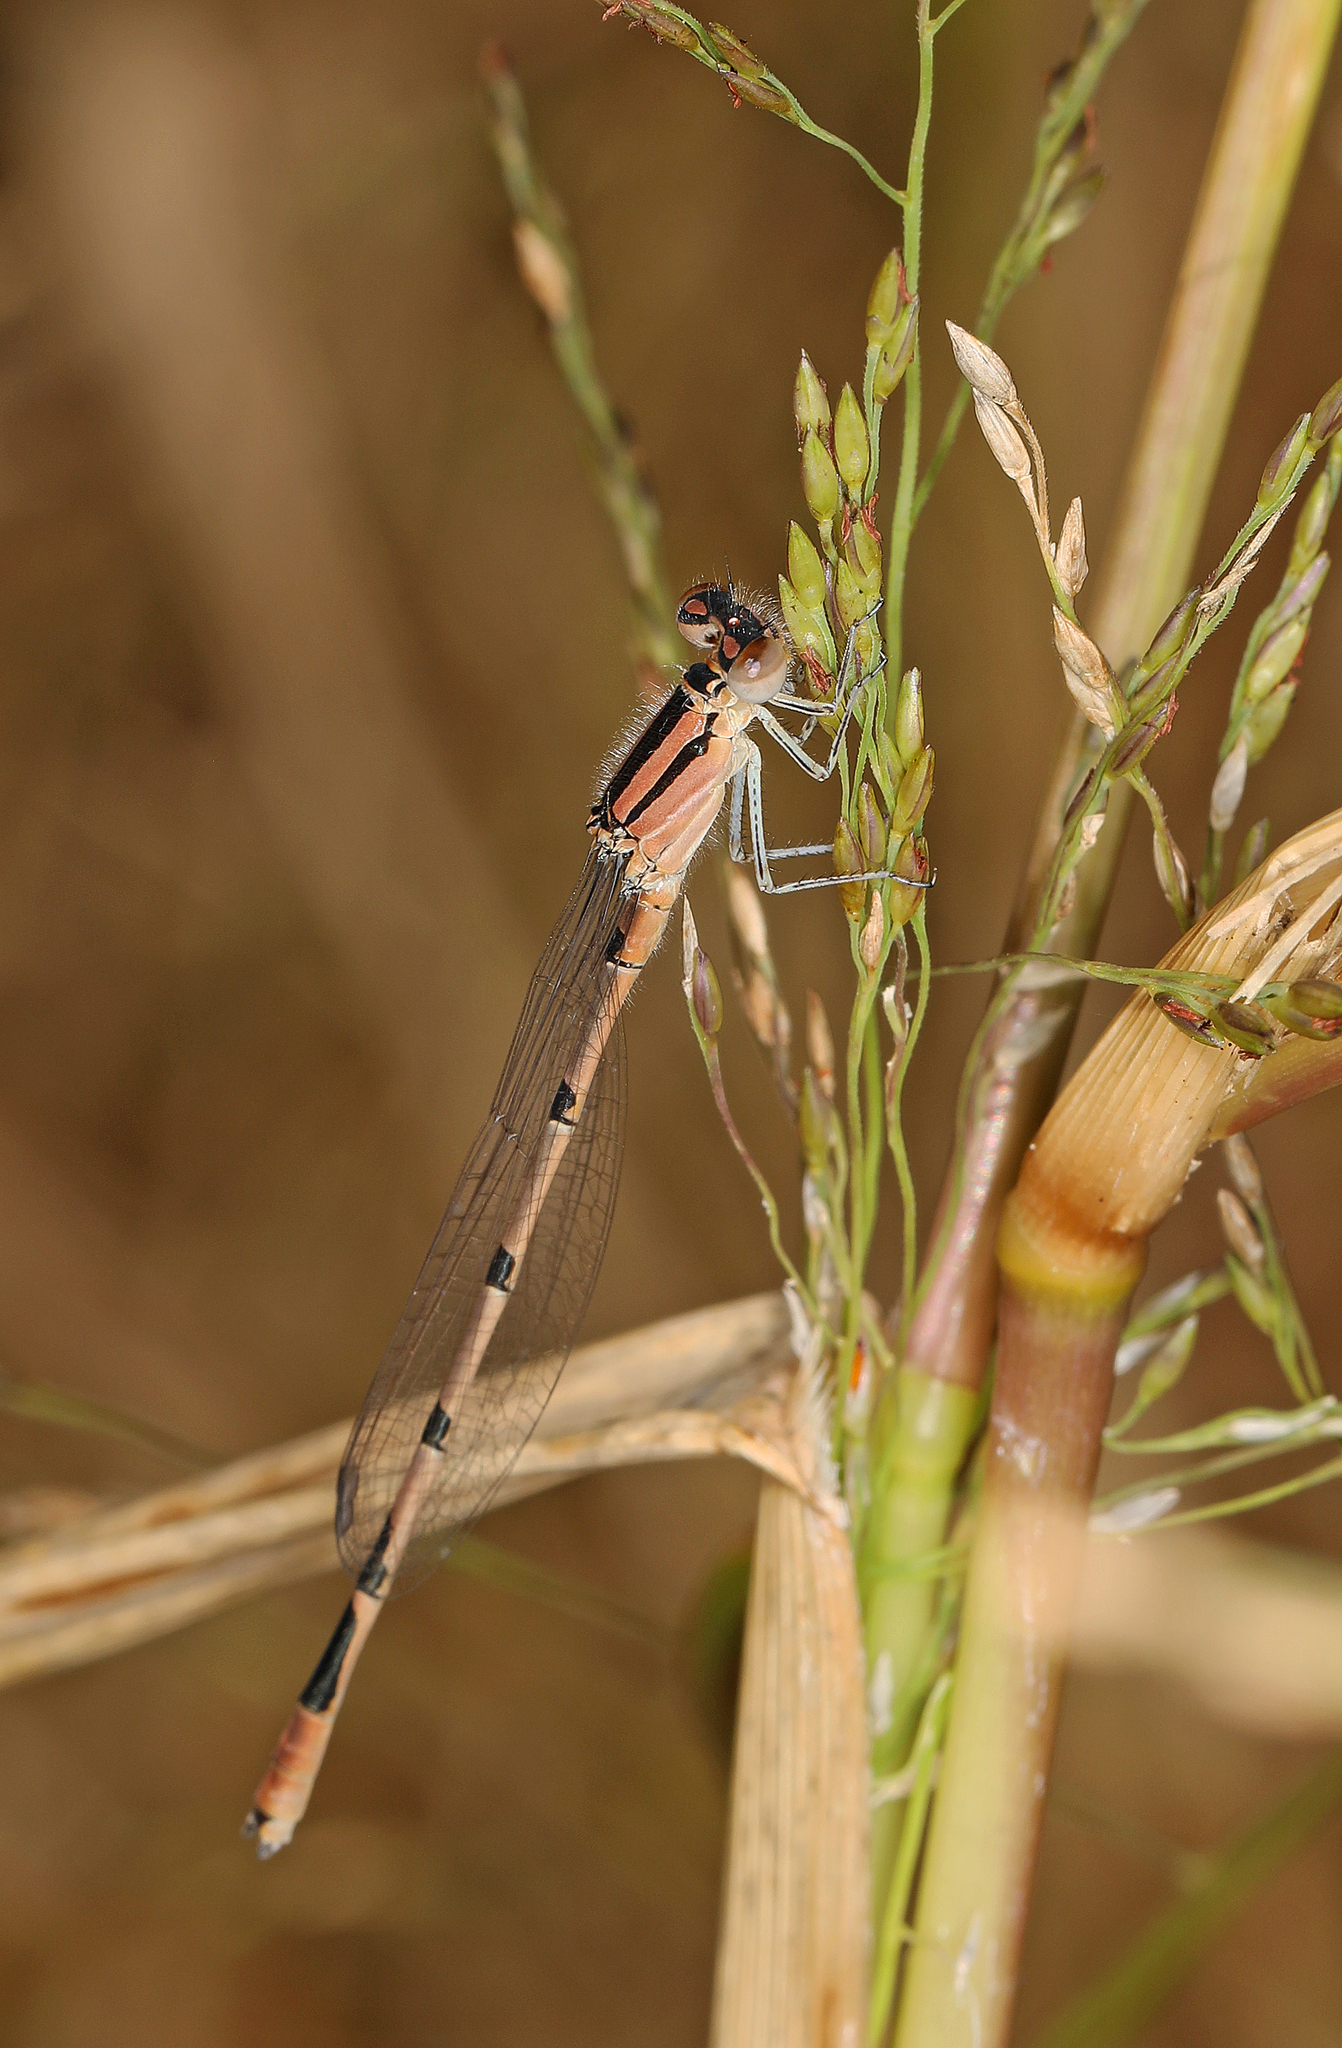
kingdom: Animalia
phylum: Arthropoda
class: Insecta
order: Odonata
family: Coenagrionidae
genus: Enallagma
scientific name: Enallagma civile
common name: Damselfly
